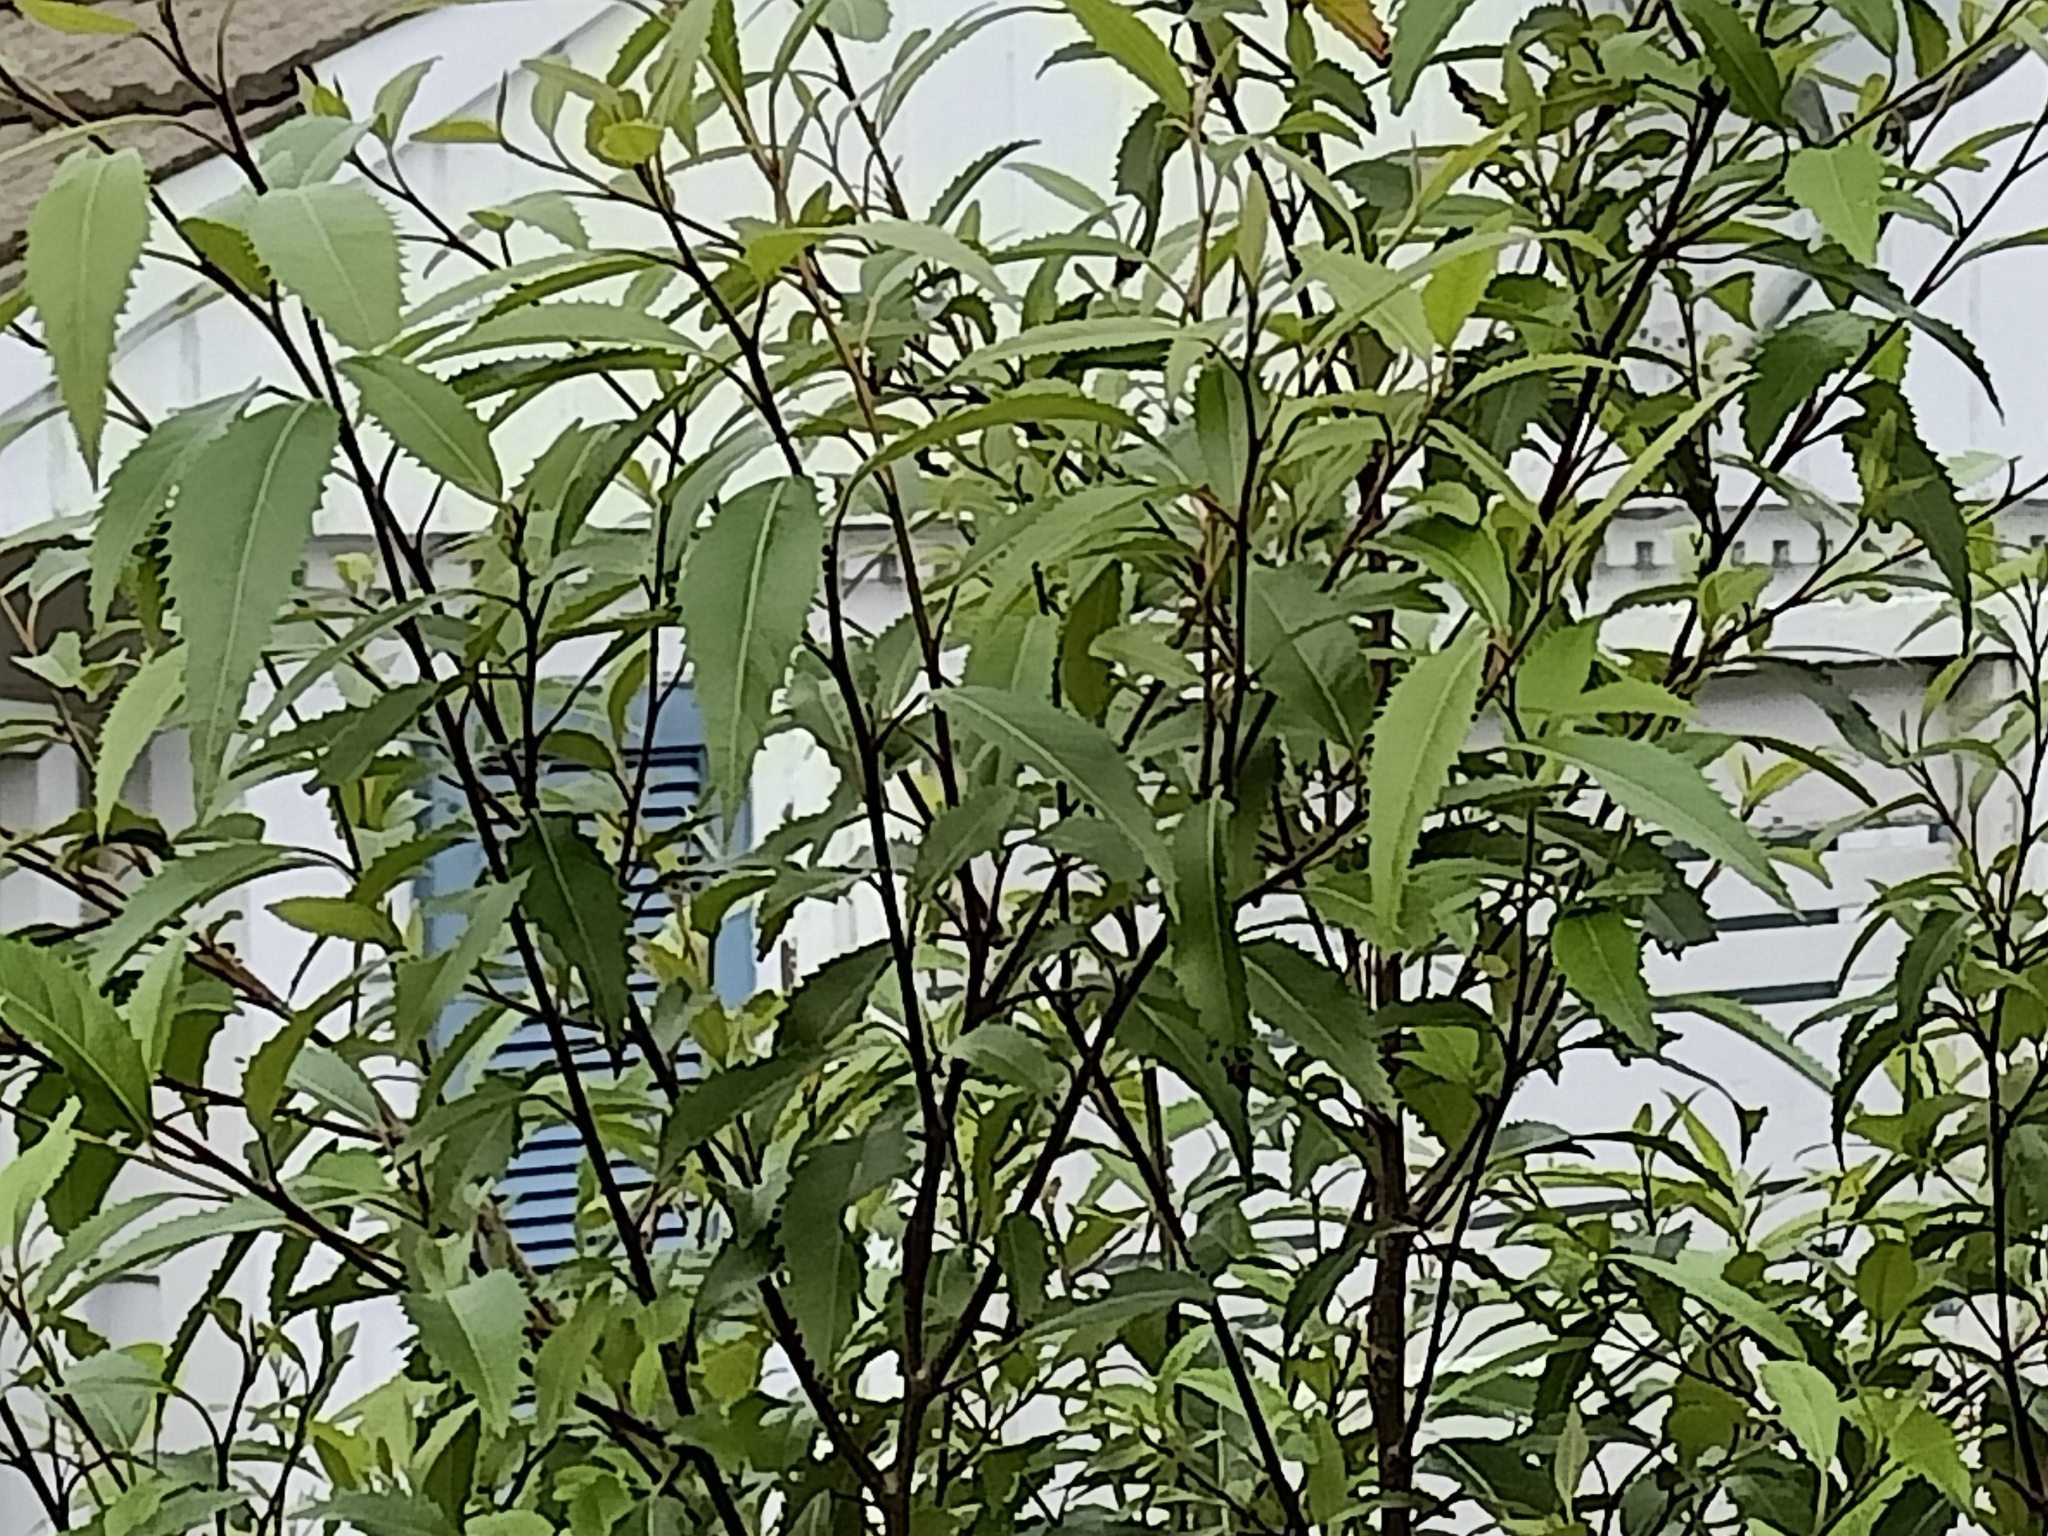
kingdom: Plantae
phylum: Tracheophyta
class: Magnoliopsida
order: Malvales
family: Malvaceae
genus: Hoheria
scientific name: Hoheria sexstylosa
